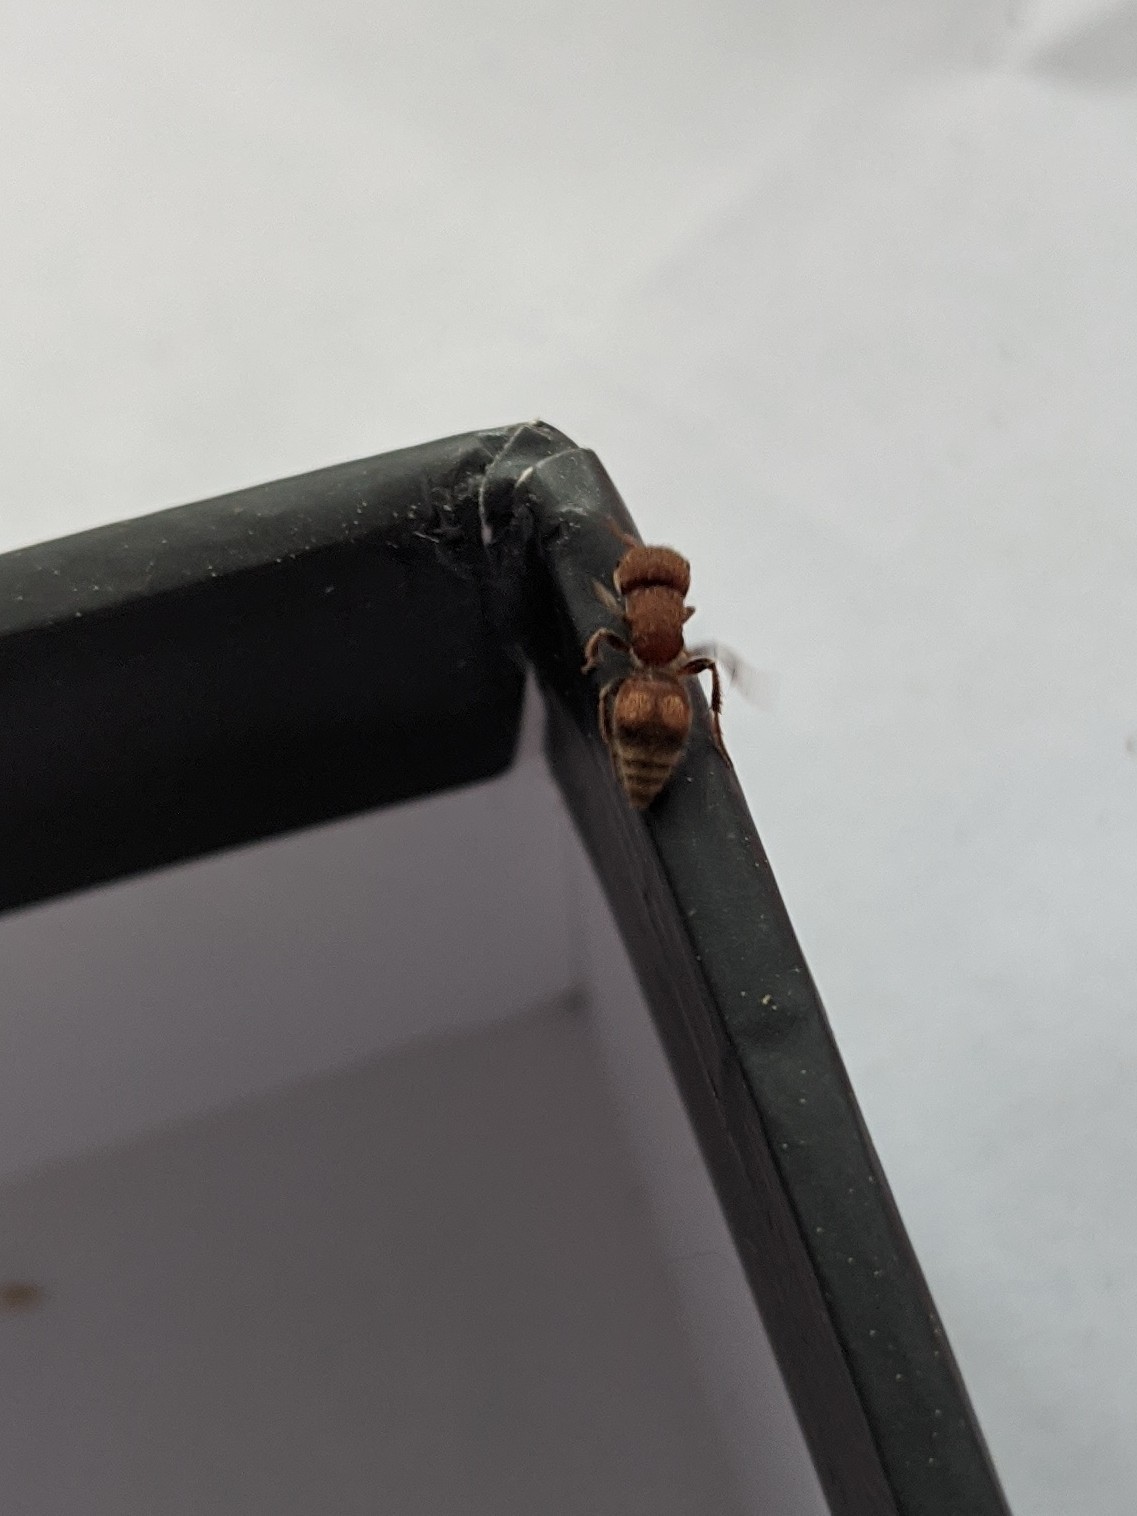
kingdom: Animalia
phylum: Arthropoda
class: Insecta
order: Hymenoptera
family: Mutillidae
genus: Pseudomethoca
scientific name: Pseudomethoca
